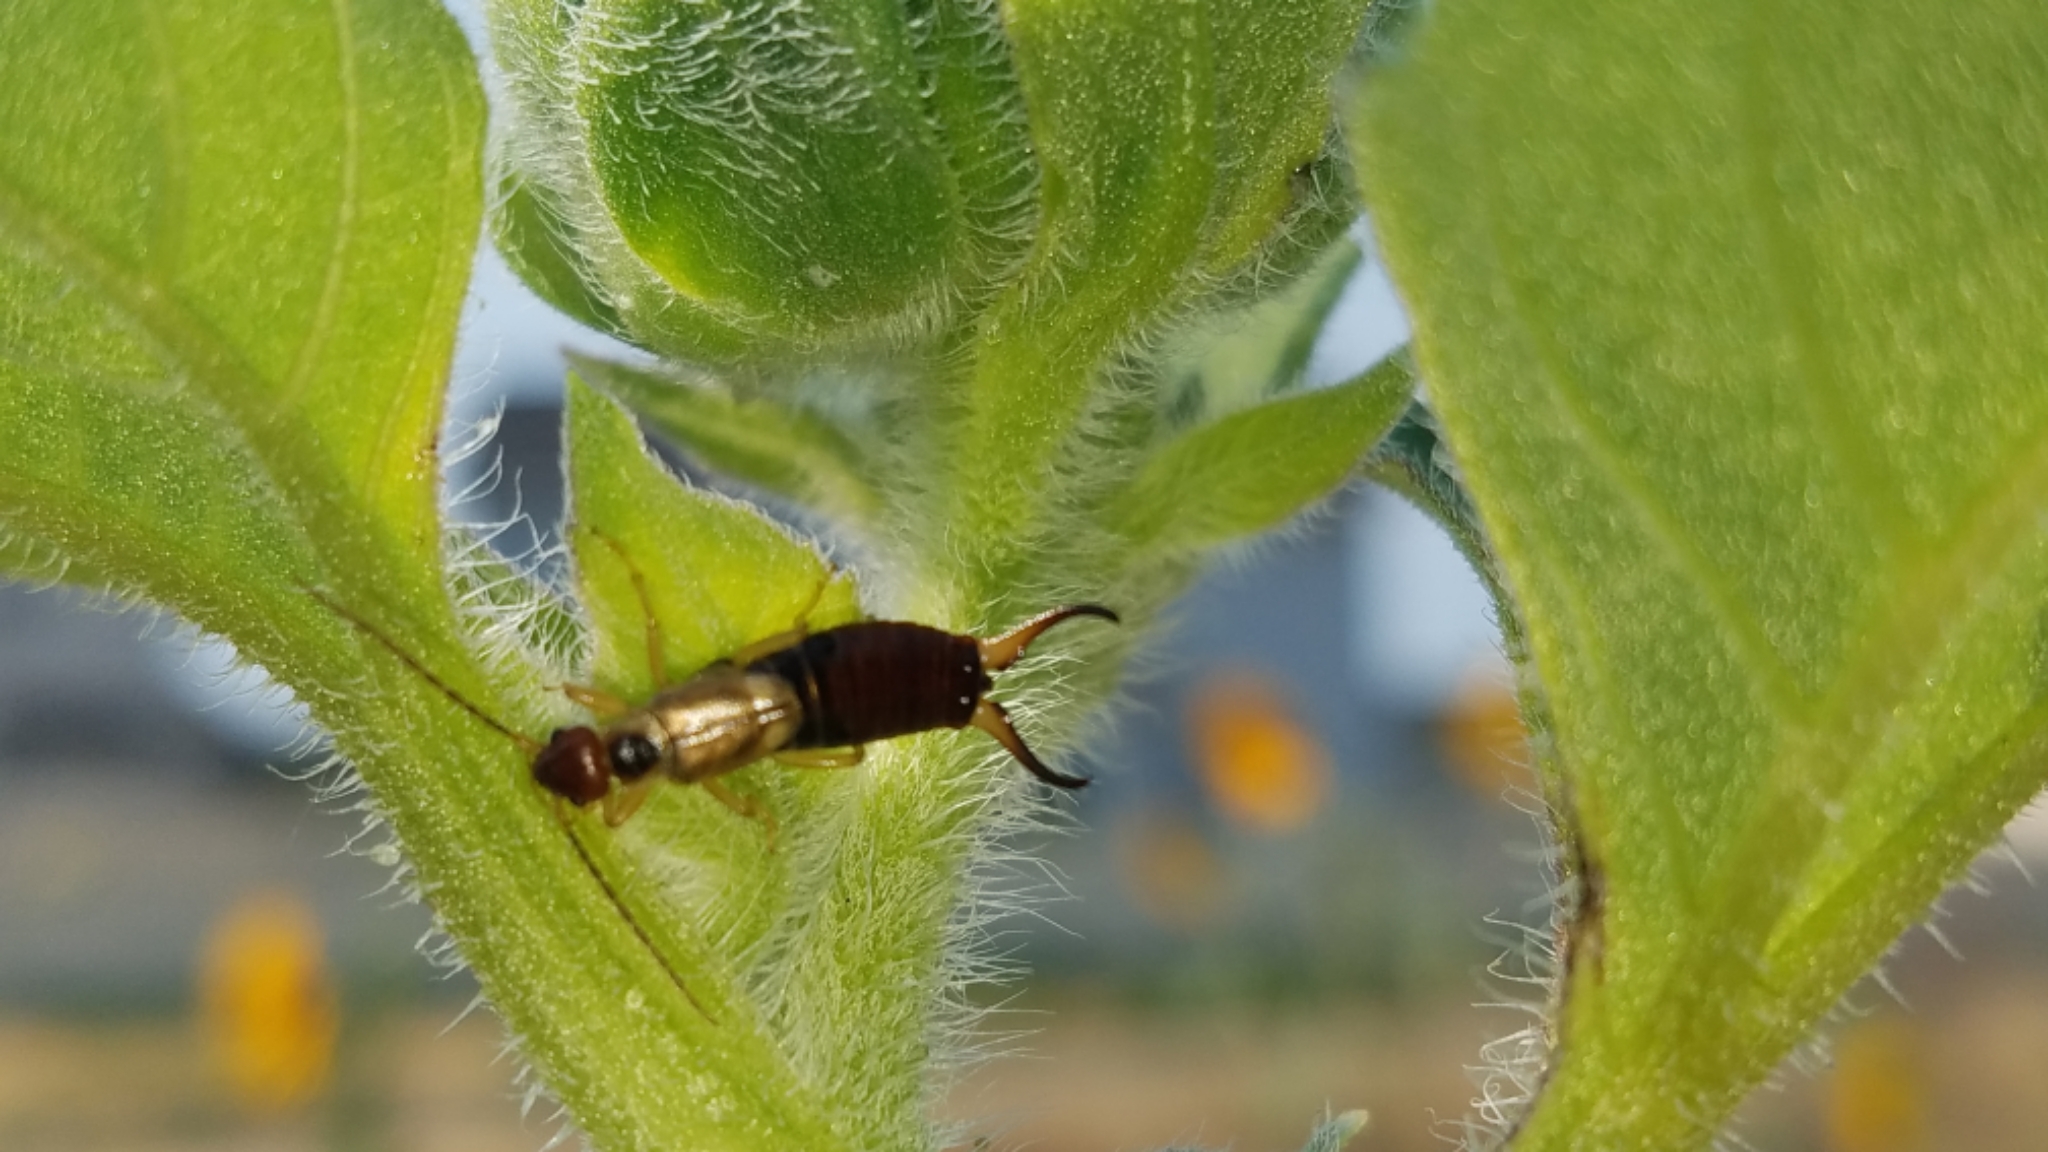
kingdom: Animalia
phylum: Arthropoda
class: Insecta
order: Dermaptera
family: Forficulidae
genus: Forficula
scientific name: Forficula
